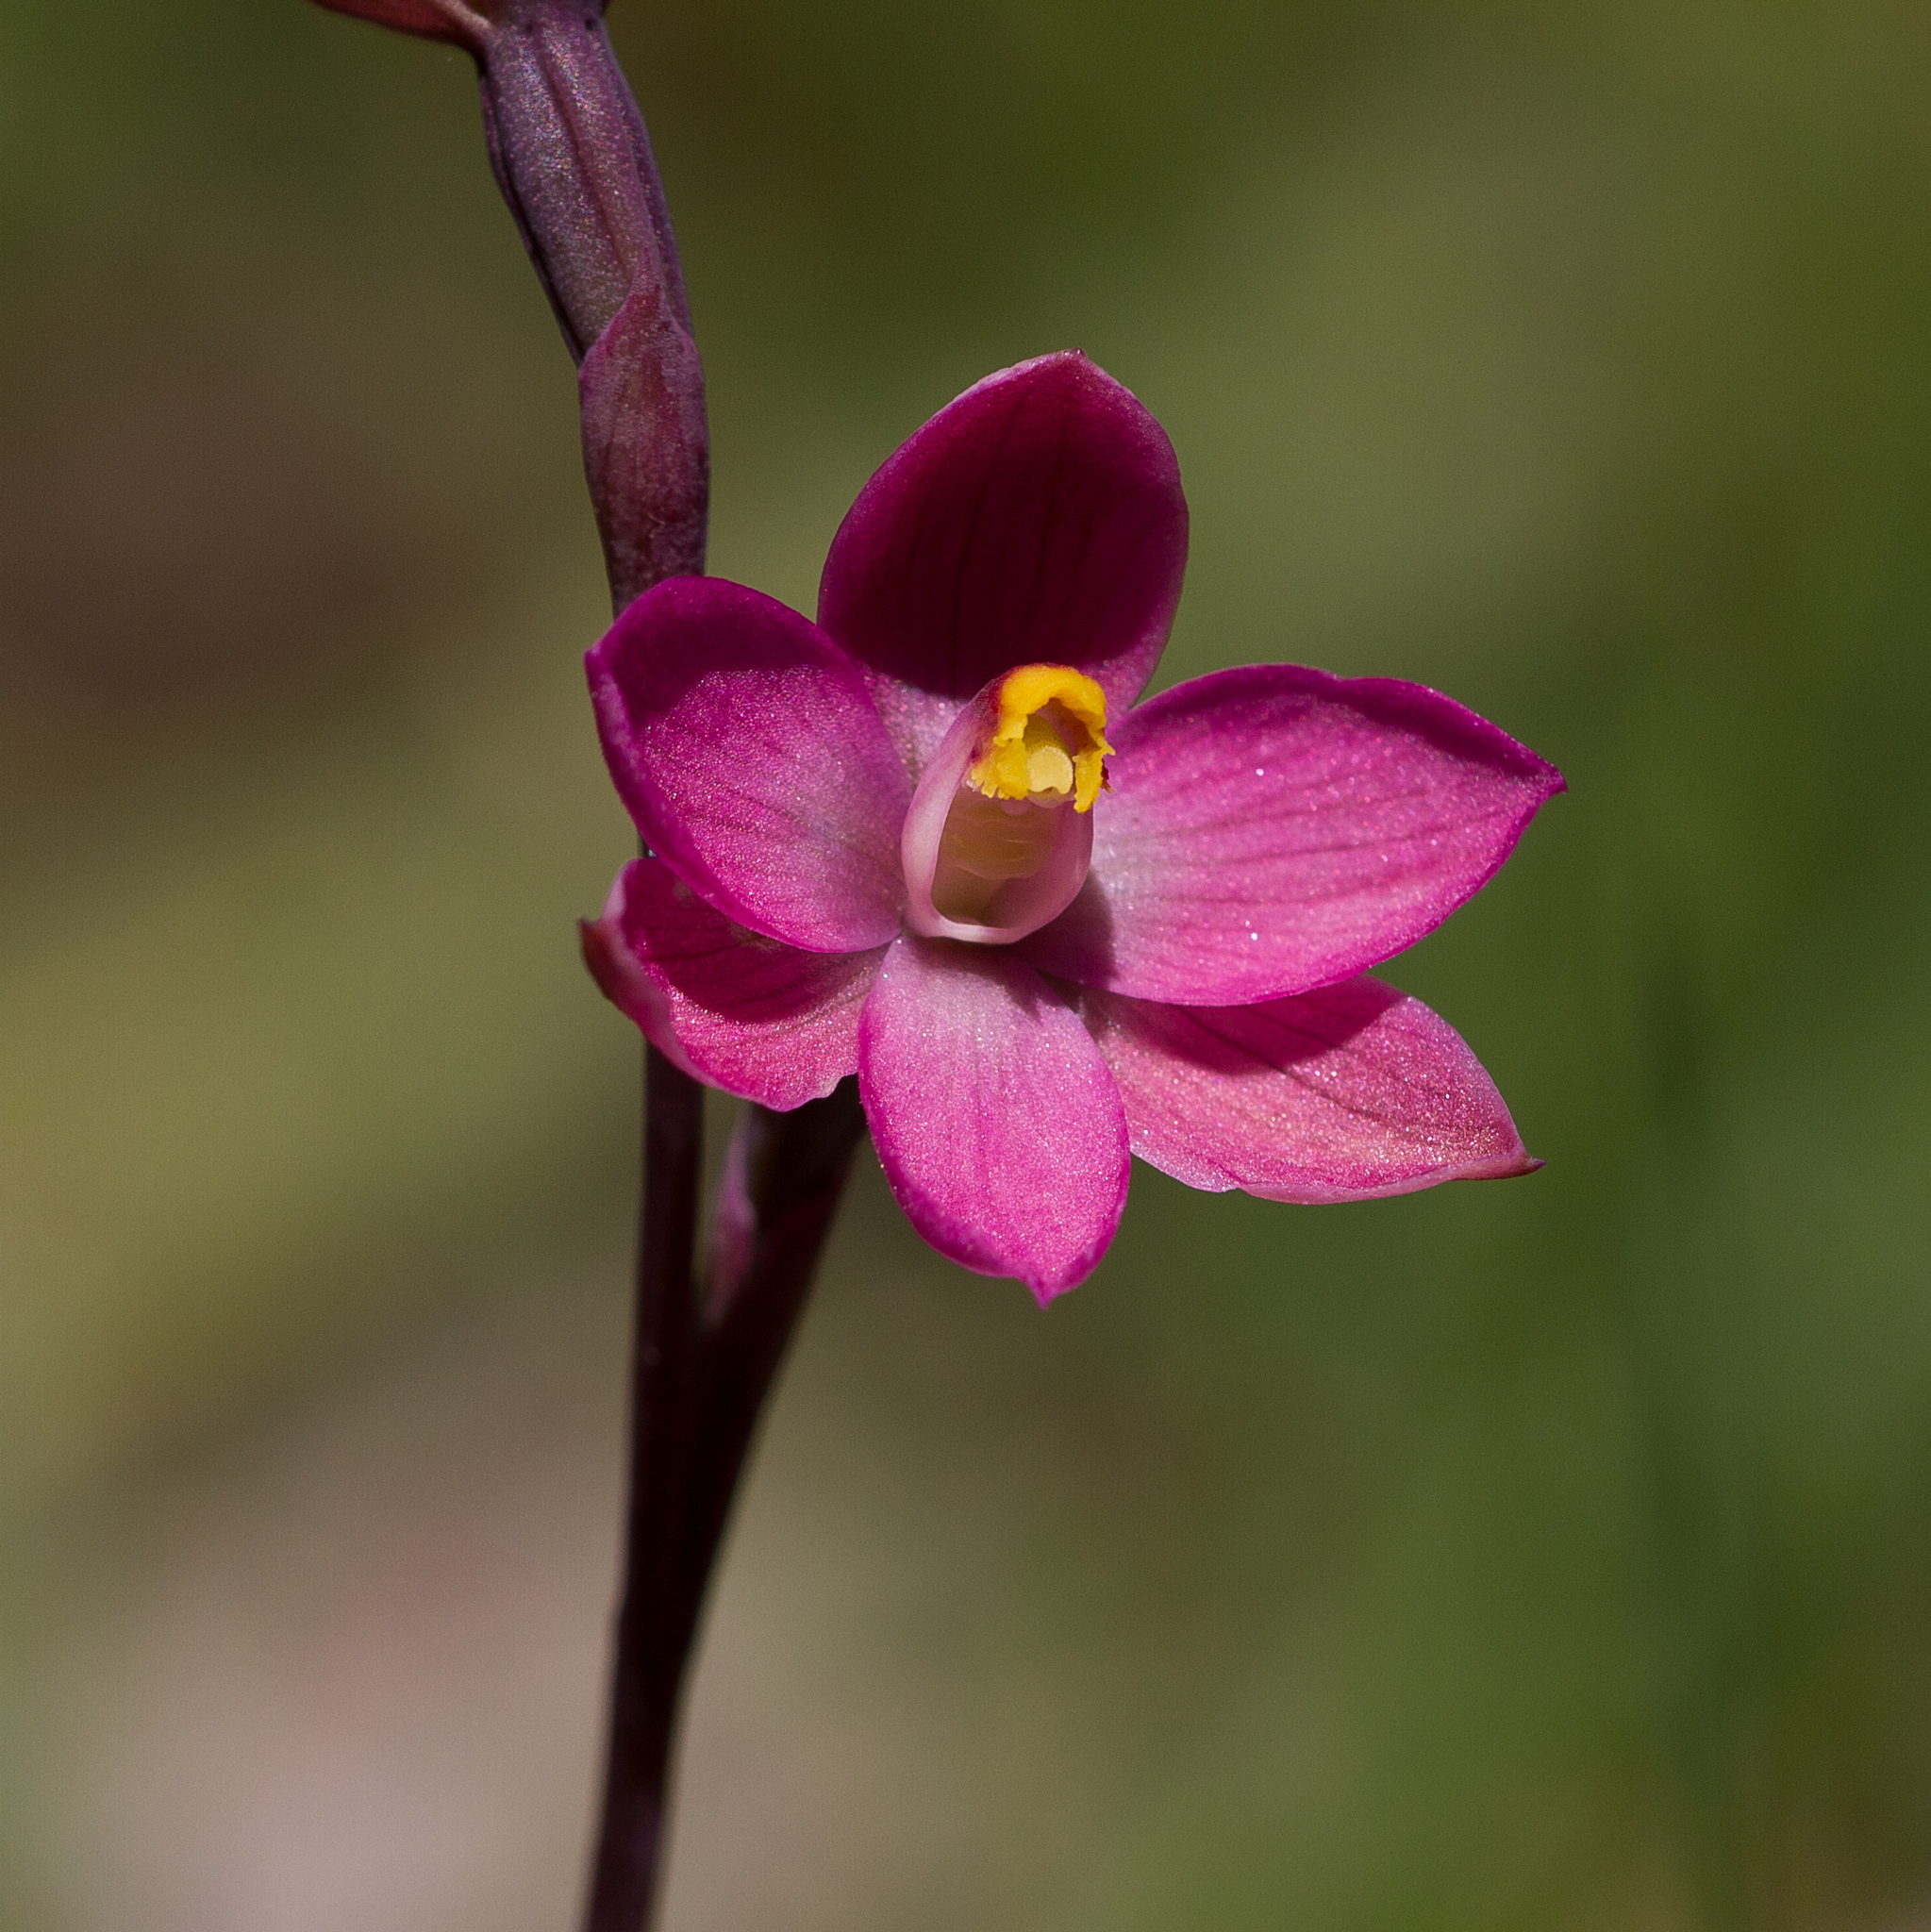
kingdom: Plantae
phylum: Tracheophyta
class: Liliopsida
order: Asparagales
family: Orchidaceae
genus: Thelymitra
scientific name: Thelymitra rubra
